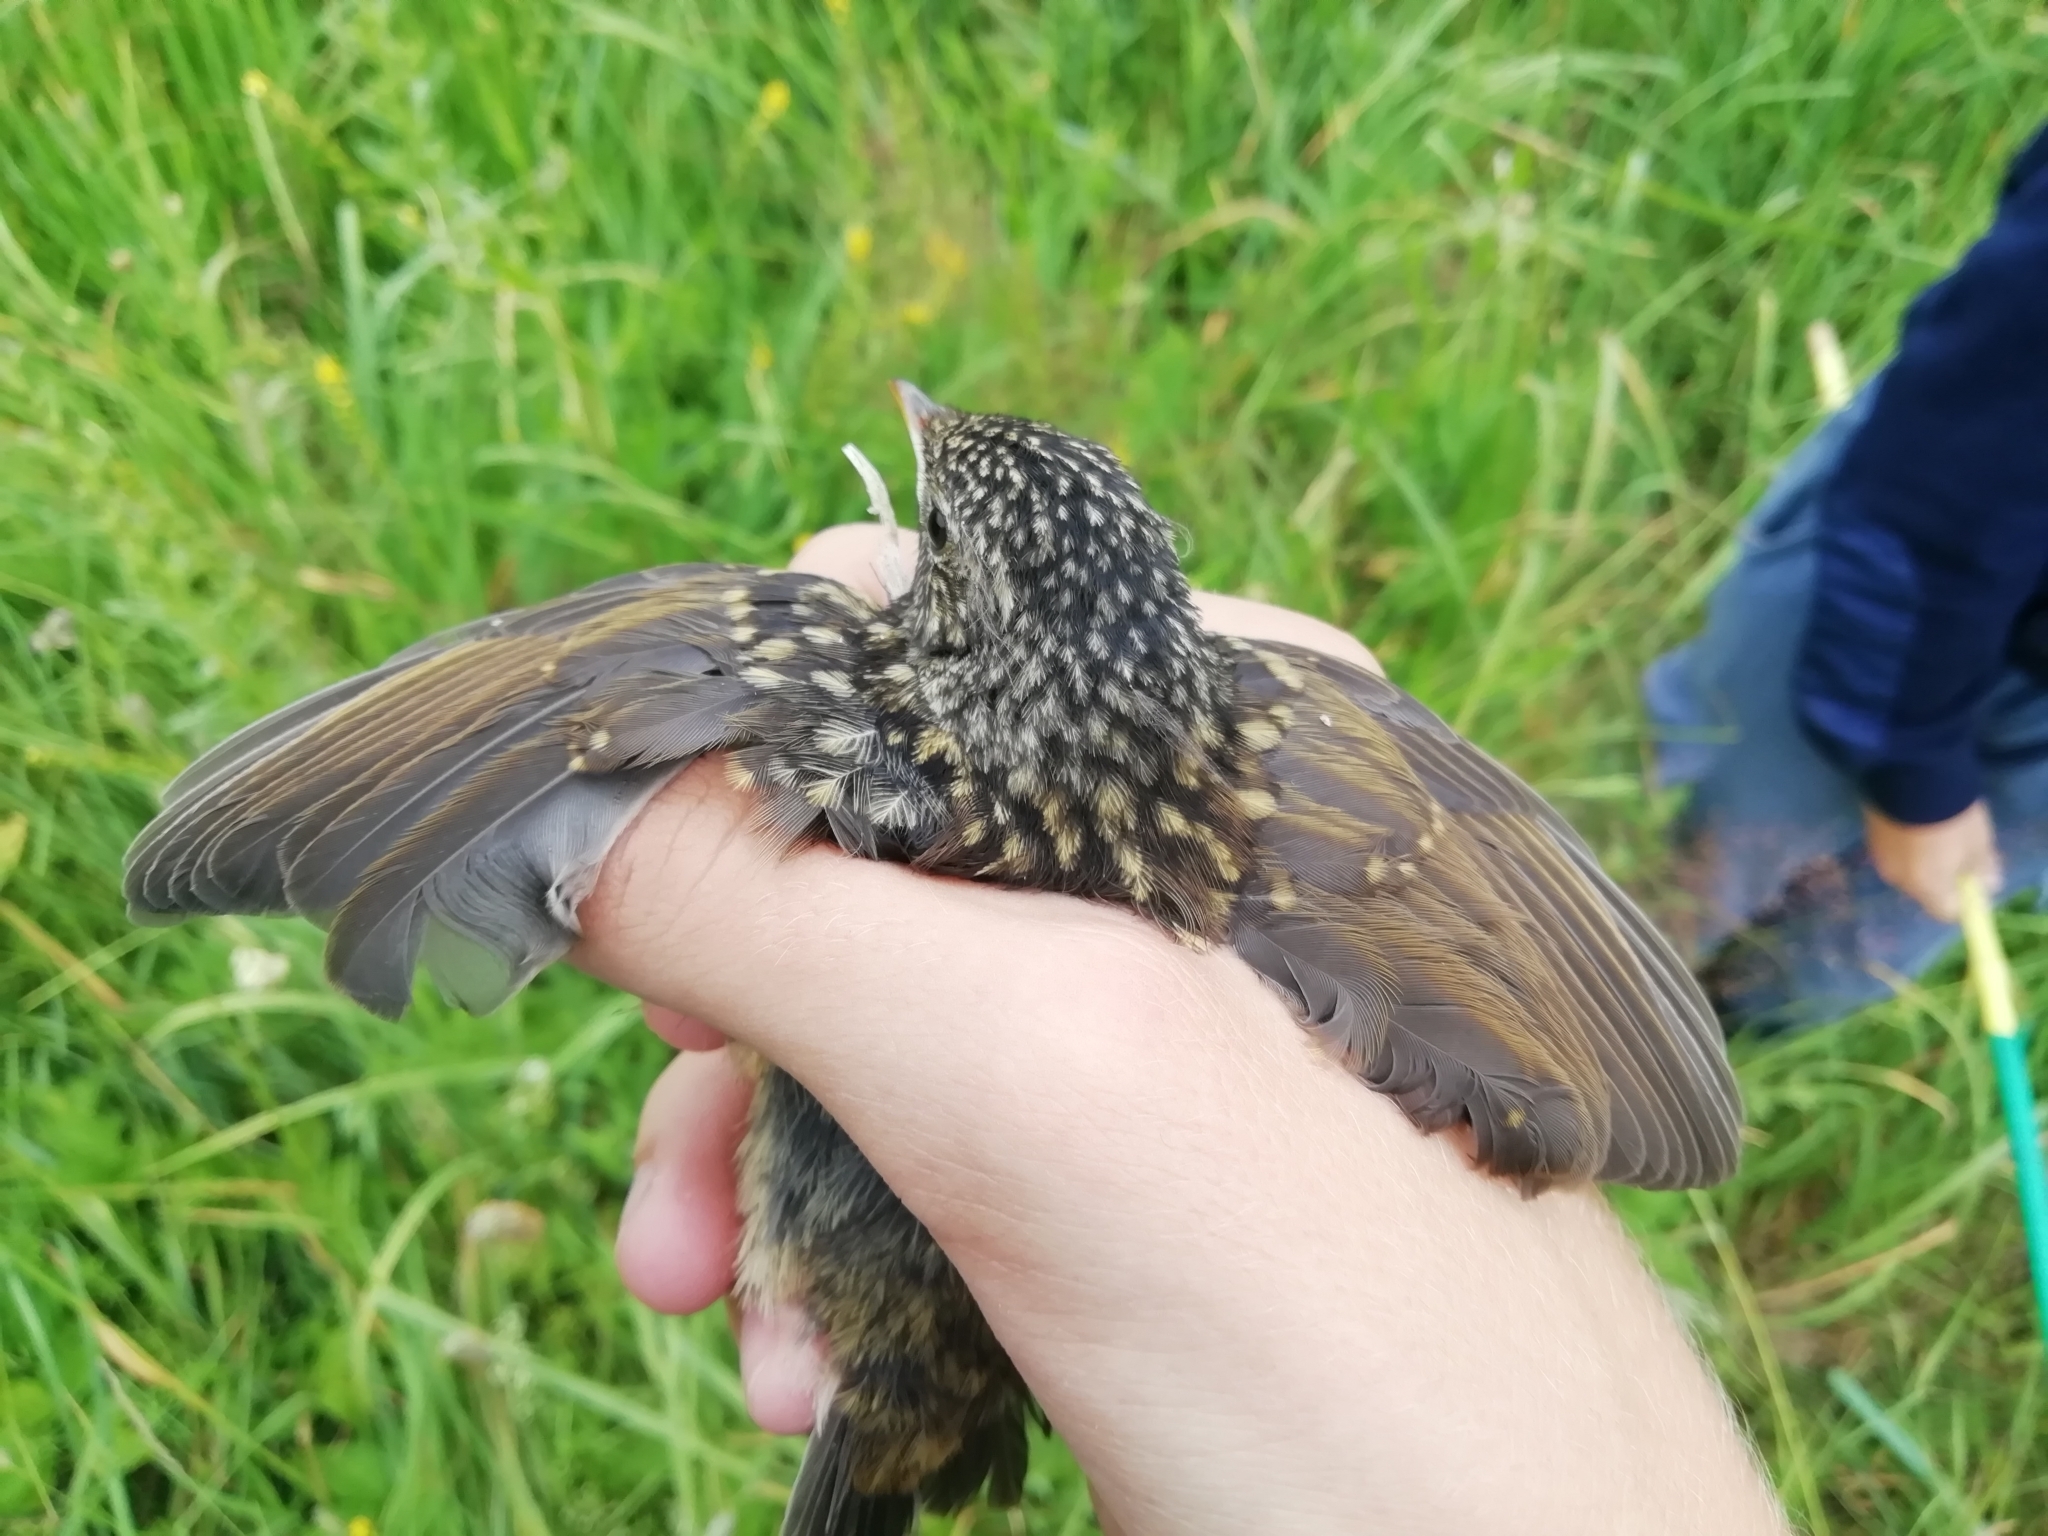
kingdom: Animalia
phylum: Chordata
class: Aves
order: Passeriformes
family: Muscicapidae
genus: Luscinia
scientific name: Luscinia svecica
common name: Bluethroat
